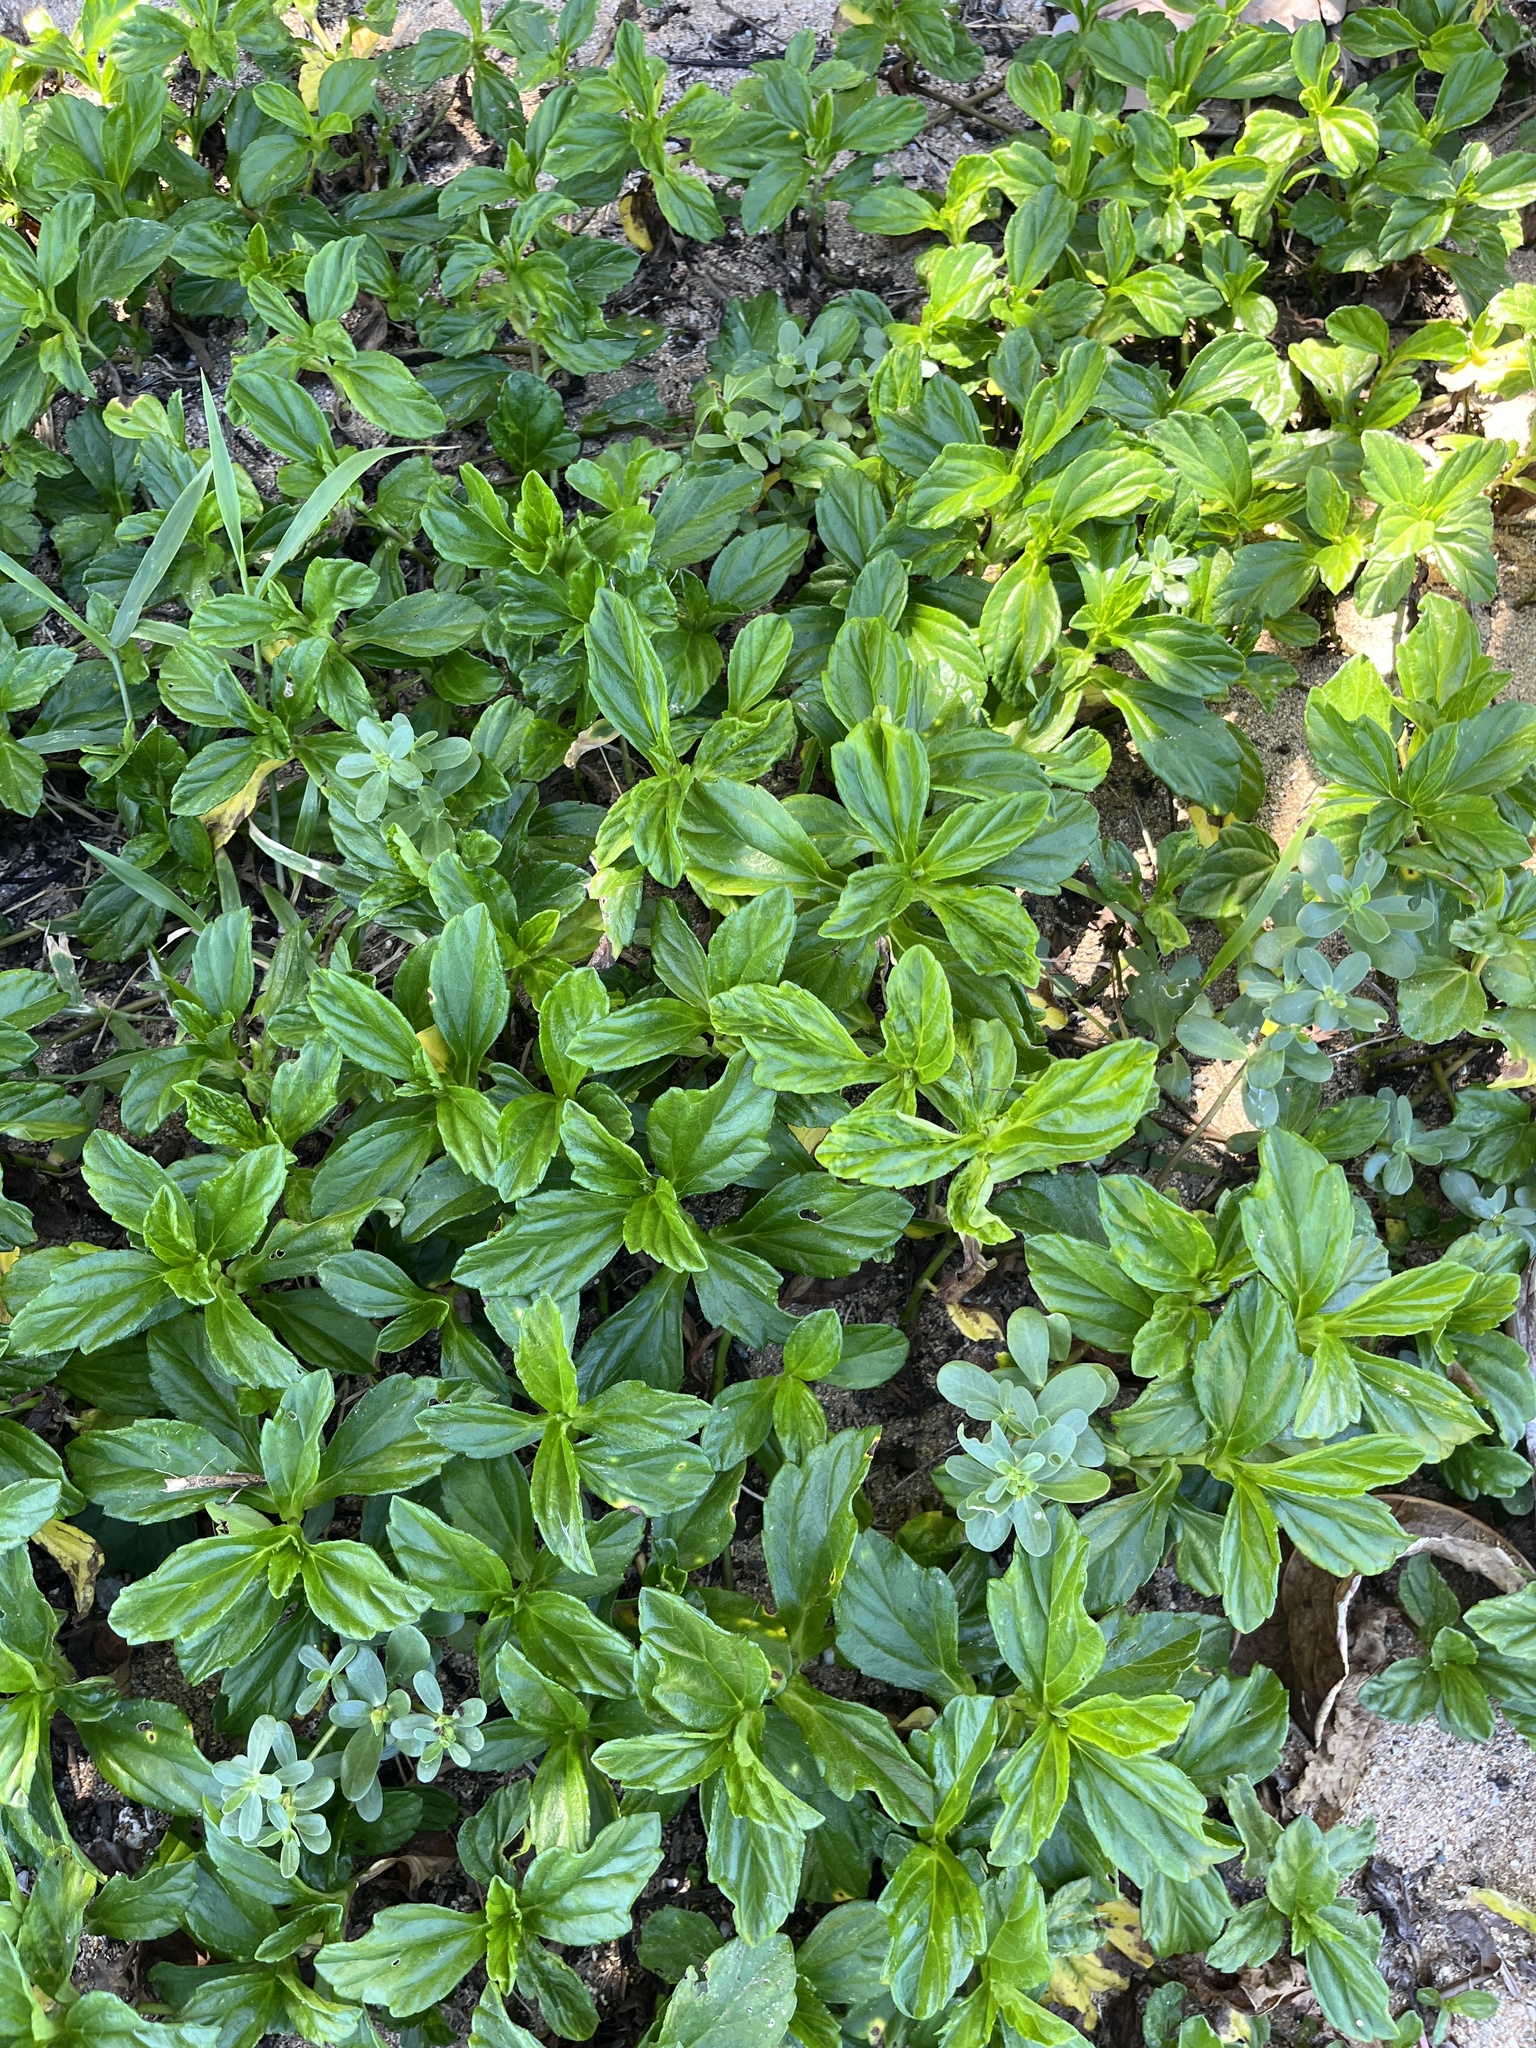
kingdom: Plantae
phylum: Tracheophyta
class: Magnoliopsida
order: Asterales
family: Asteraceae
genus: Sphagneticola
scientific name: Sphagneticola trilobata
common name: Bay biscayne creeping-oxeye
